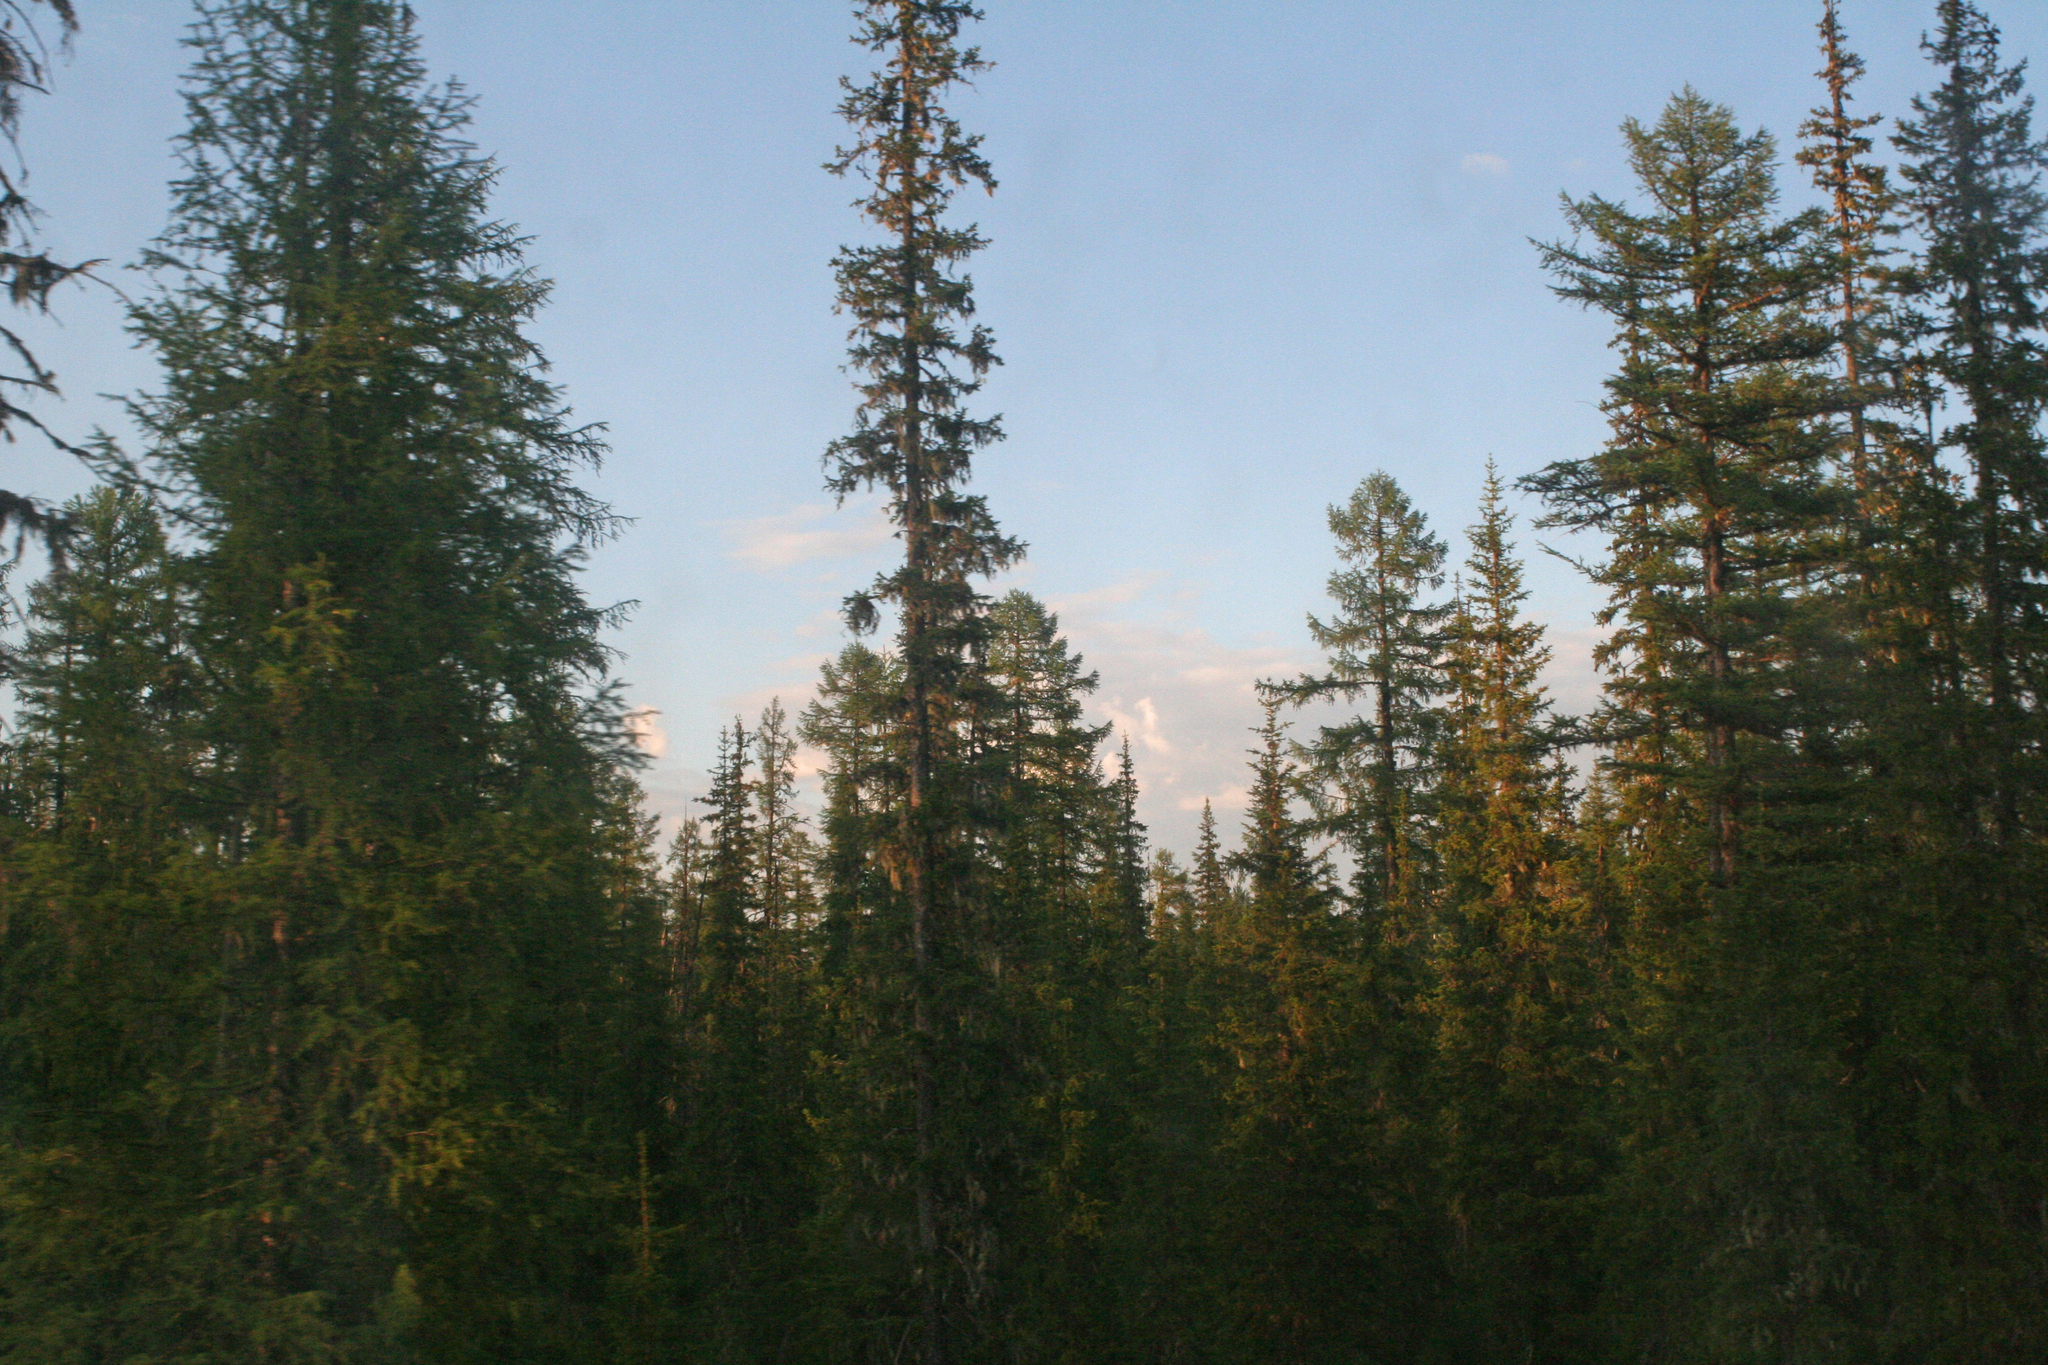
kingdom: Plantae
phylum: Tracheophyta
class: Pinopsida
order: Pinales
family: Pinaceae
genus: Larix
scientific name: Larix gmelinii
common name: Dahurian larch
